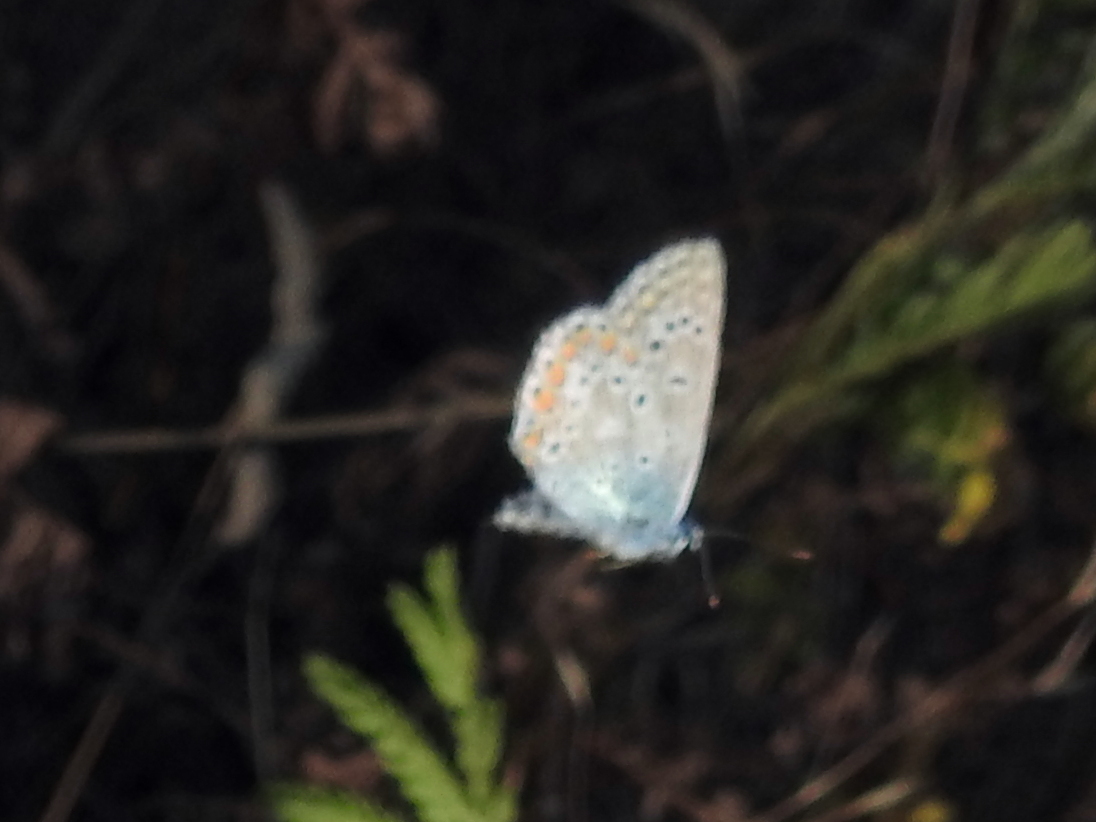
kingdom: Animalia
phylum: Arthropoda
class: Insecta
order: Lepidoptera
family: Lycaenidae
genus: Polyommatus
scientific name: Polyommatus icarus
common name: Common blue
